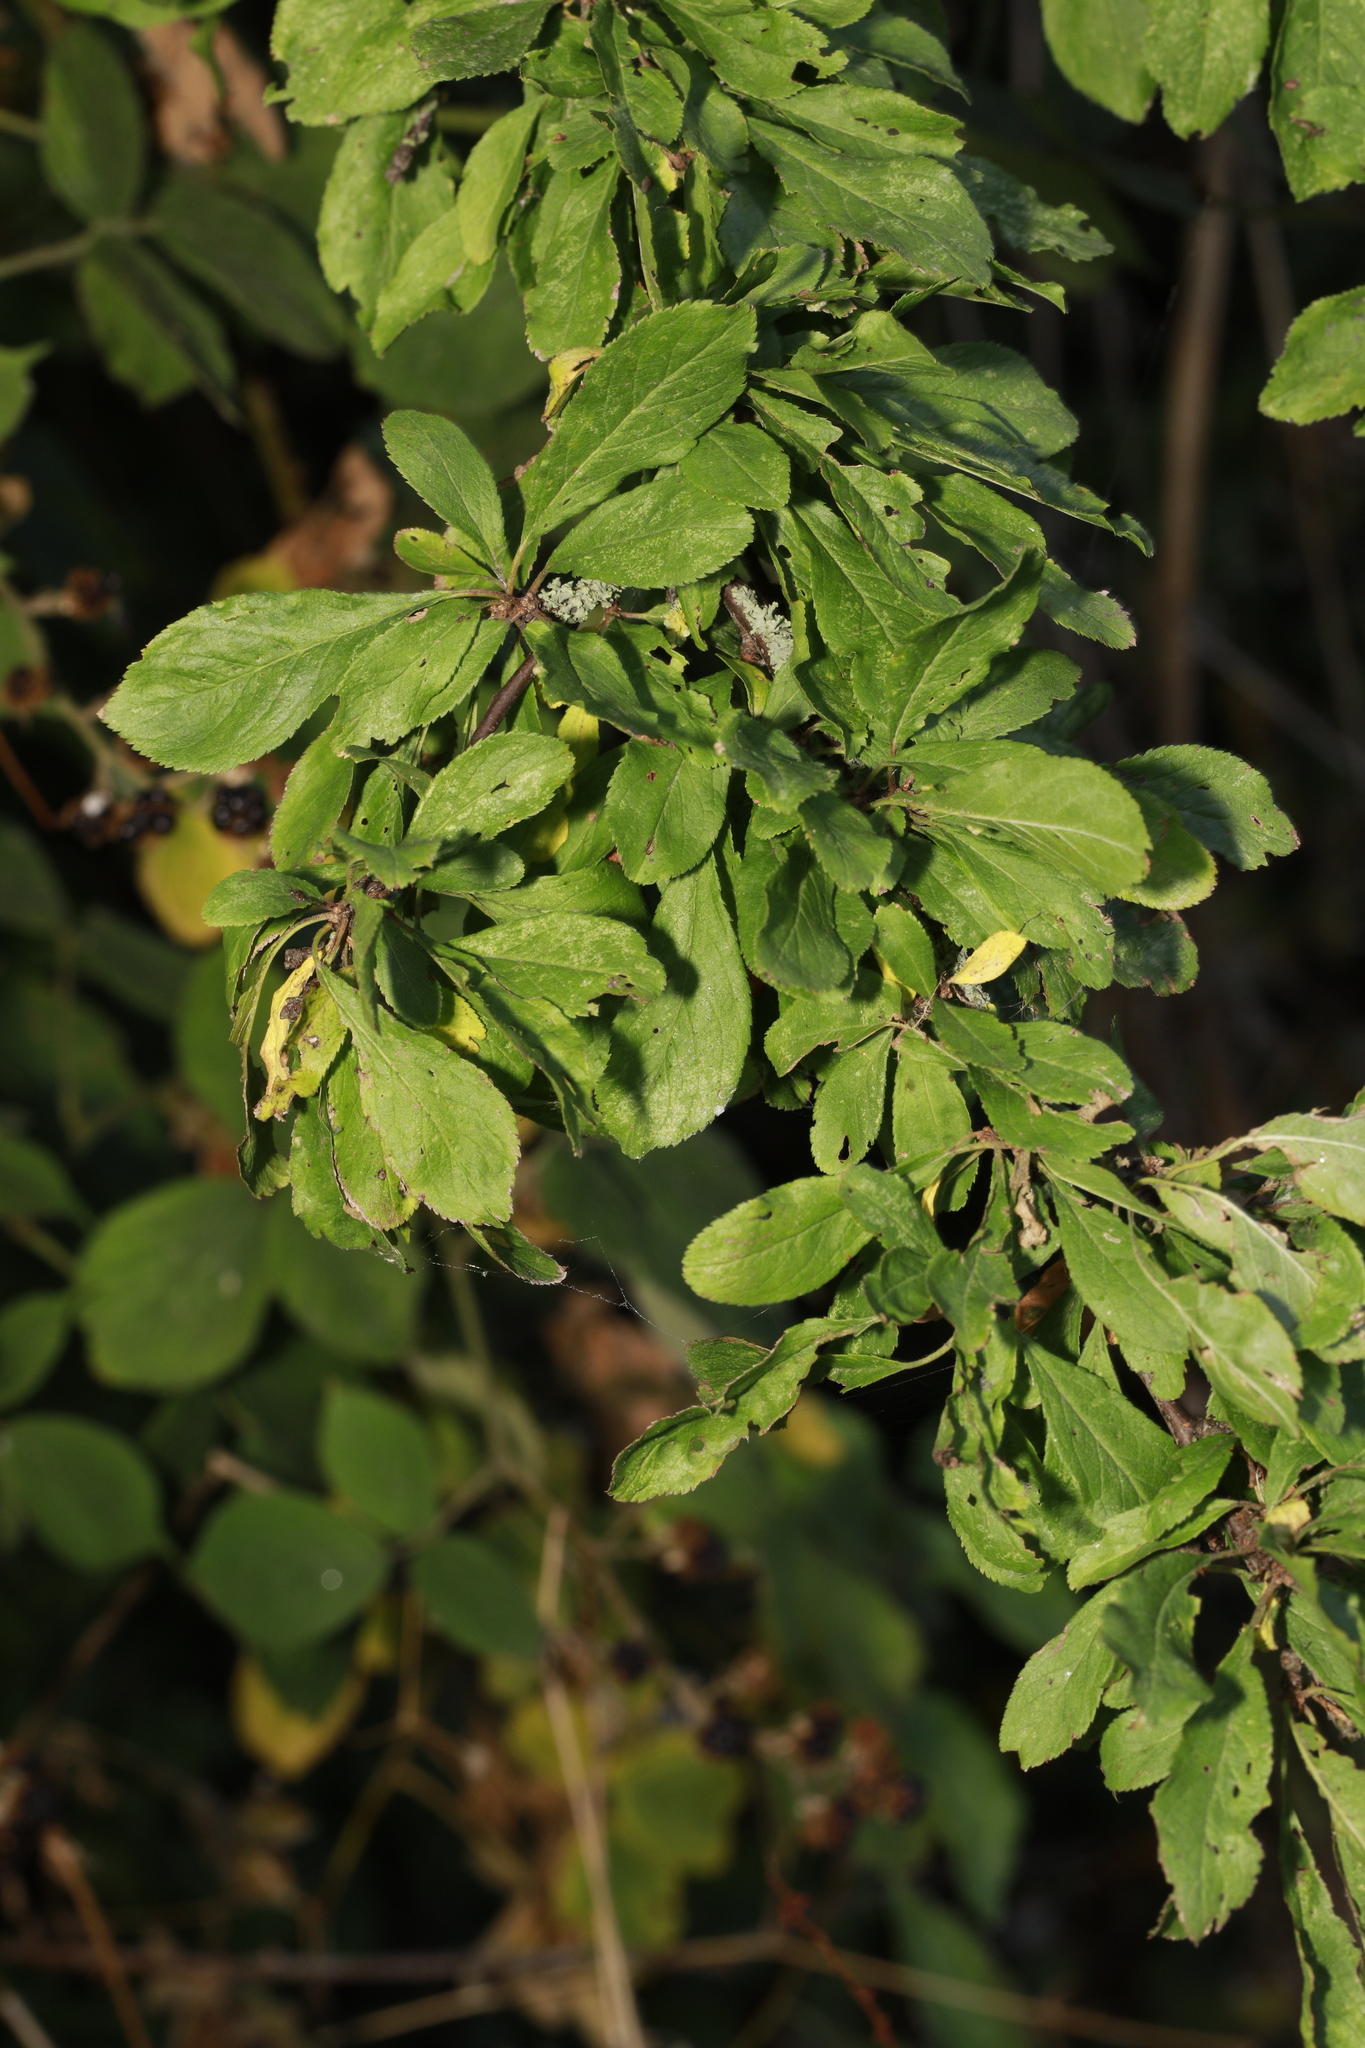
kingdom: Plantae
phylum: Tracheophyta
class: Magnoliopsida
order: Rosales
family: Rosaceae
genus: Prunus
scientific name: Prunus spinosa
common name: Blackthorn
